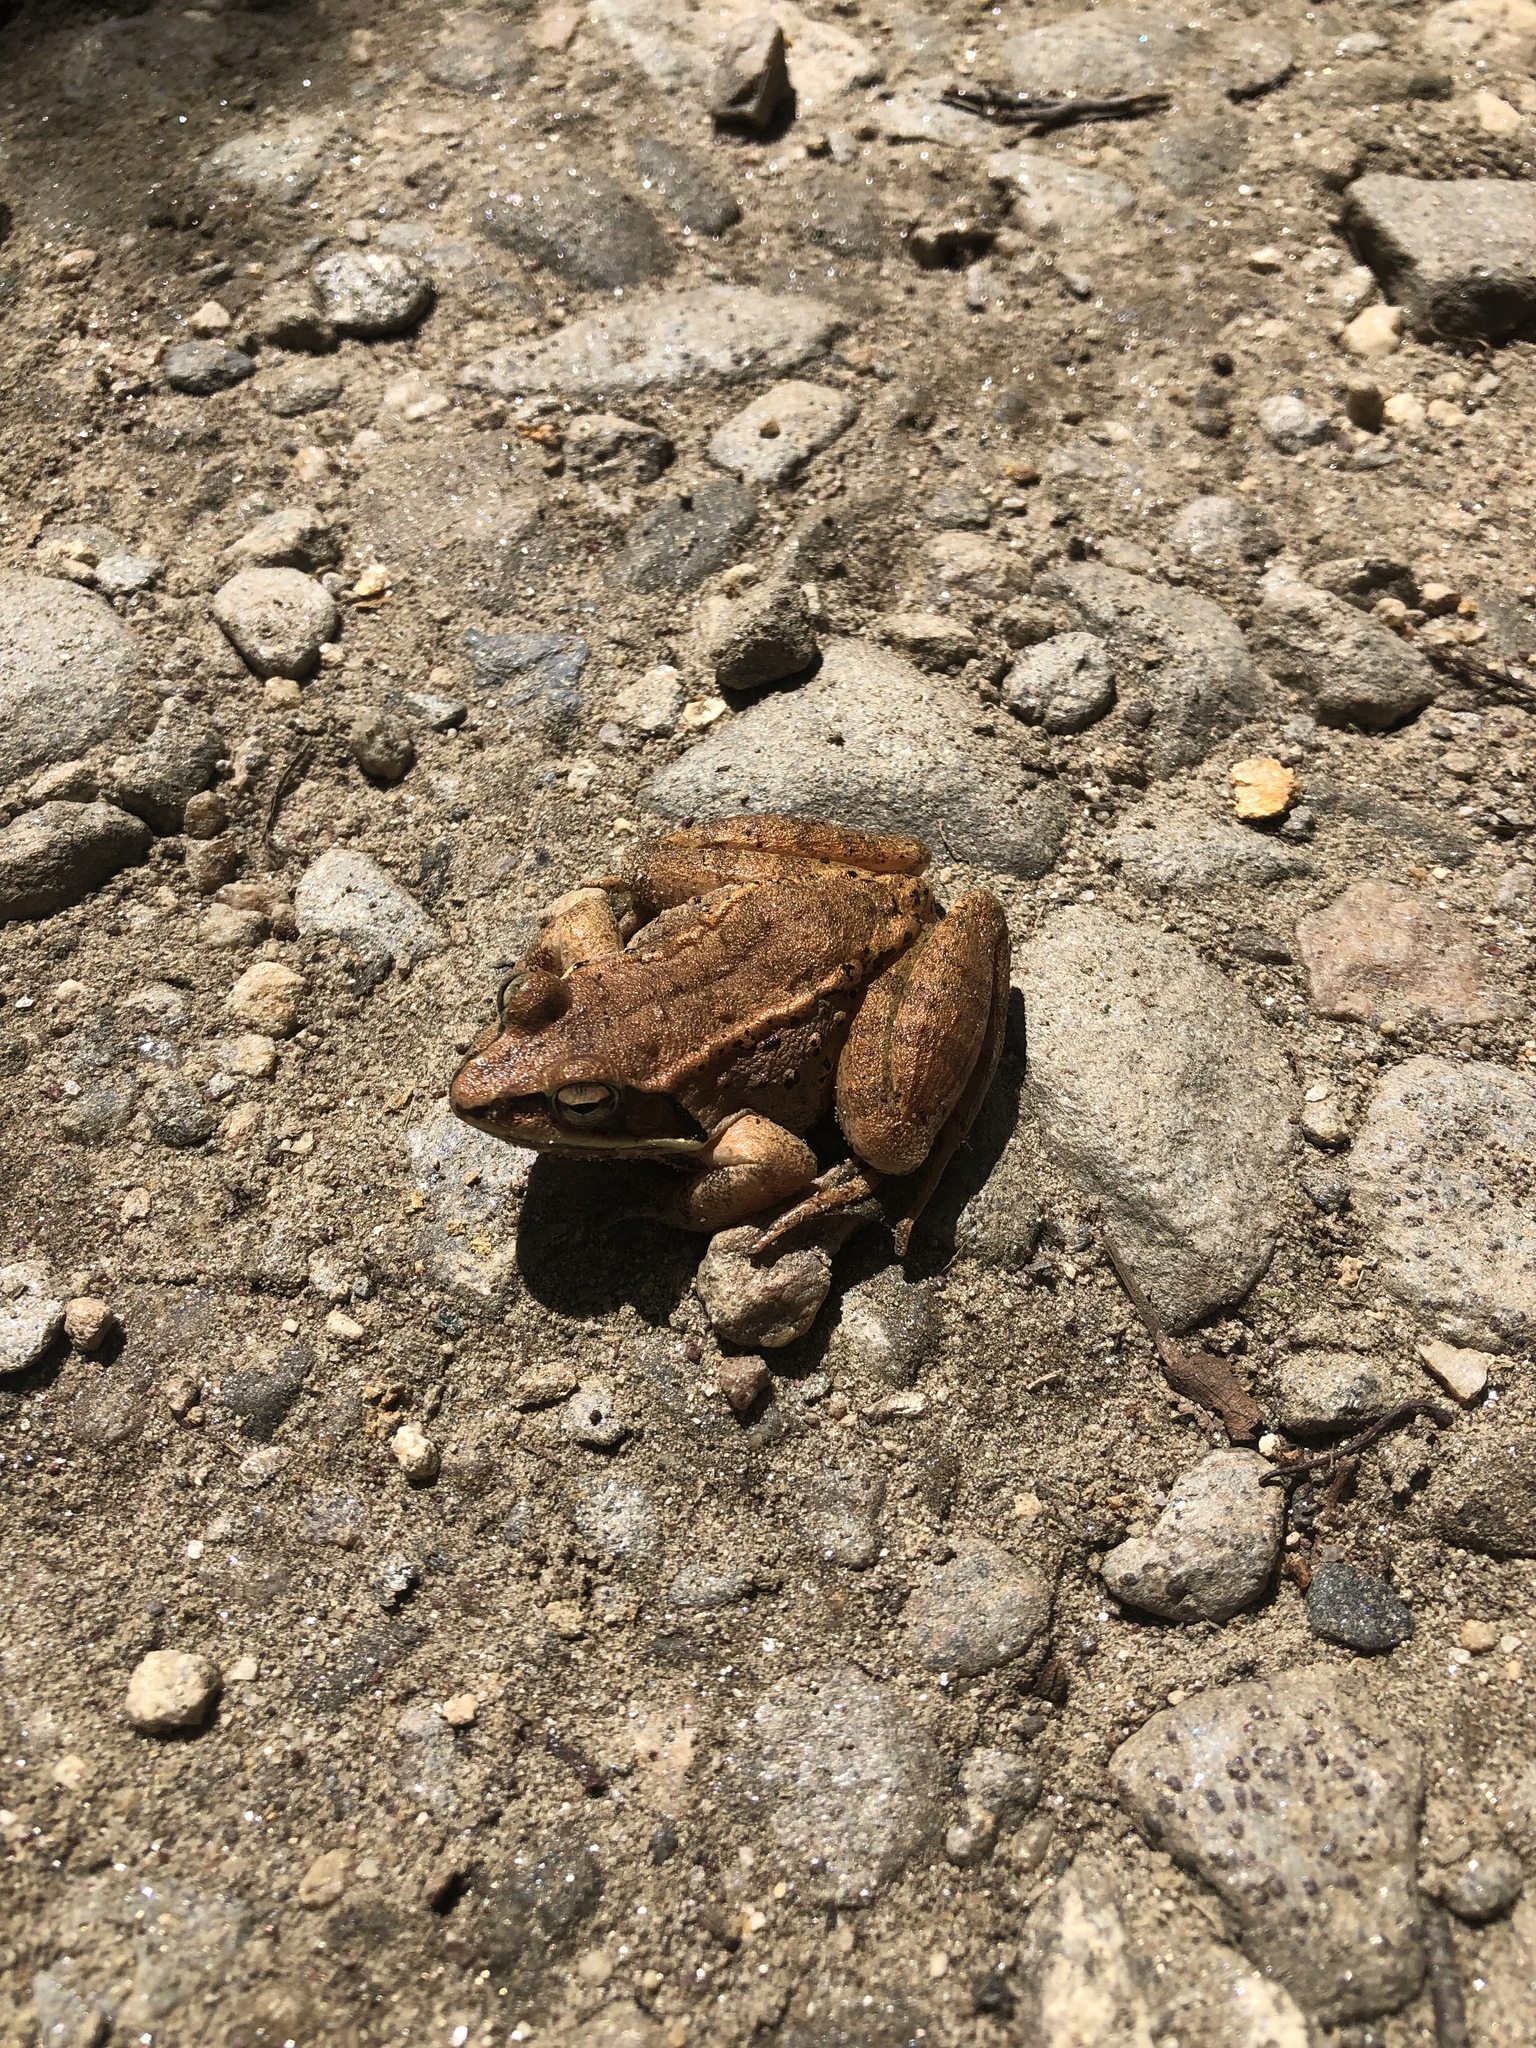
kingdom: Animalia
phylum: Chordata
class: Amphibia
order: Anura
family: Ranidae
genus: Lithobates
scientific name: Lithobates sylvaticus
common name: Wood frog
